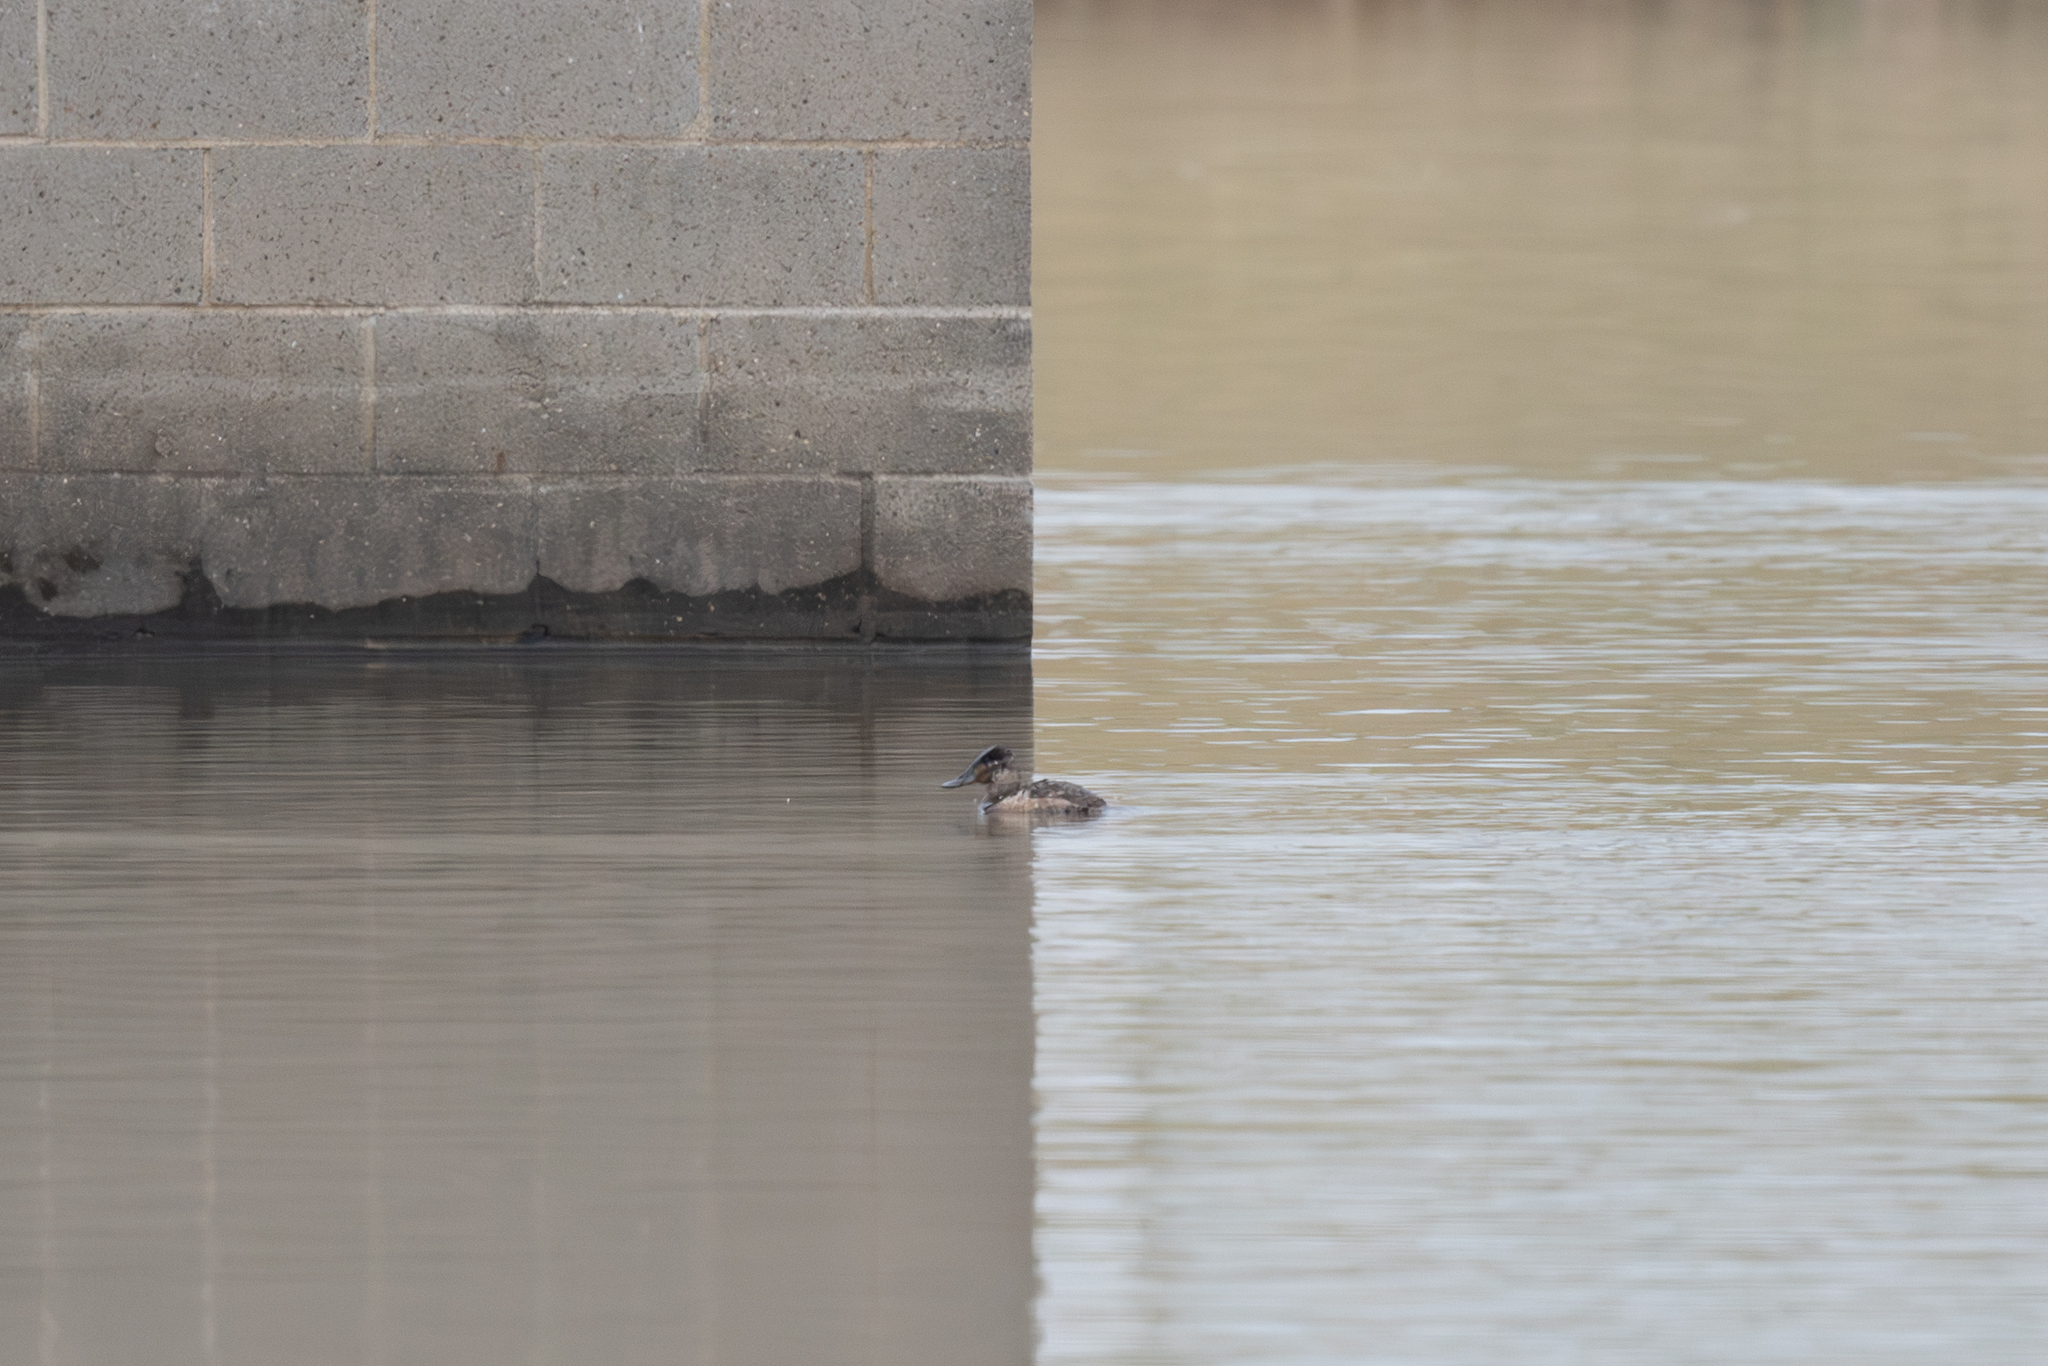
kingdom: Animalia
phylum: Chordata
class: Aves
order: Anseriformes
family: Anatidae
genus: Oxyura
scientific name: Oxyura jamaicensis
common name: Ruddy duck
